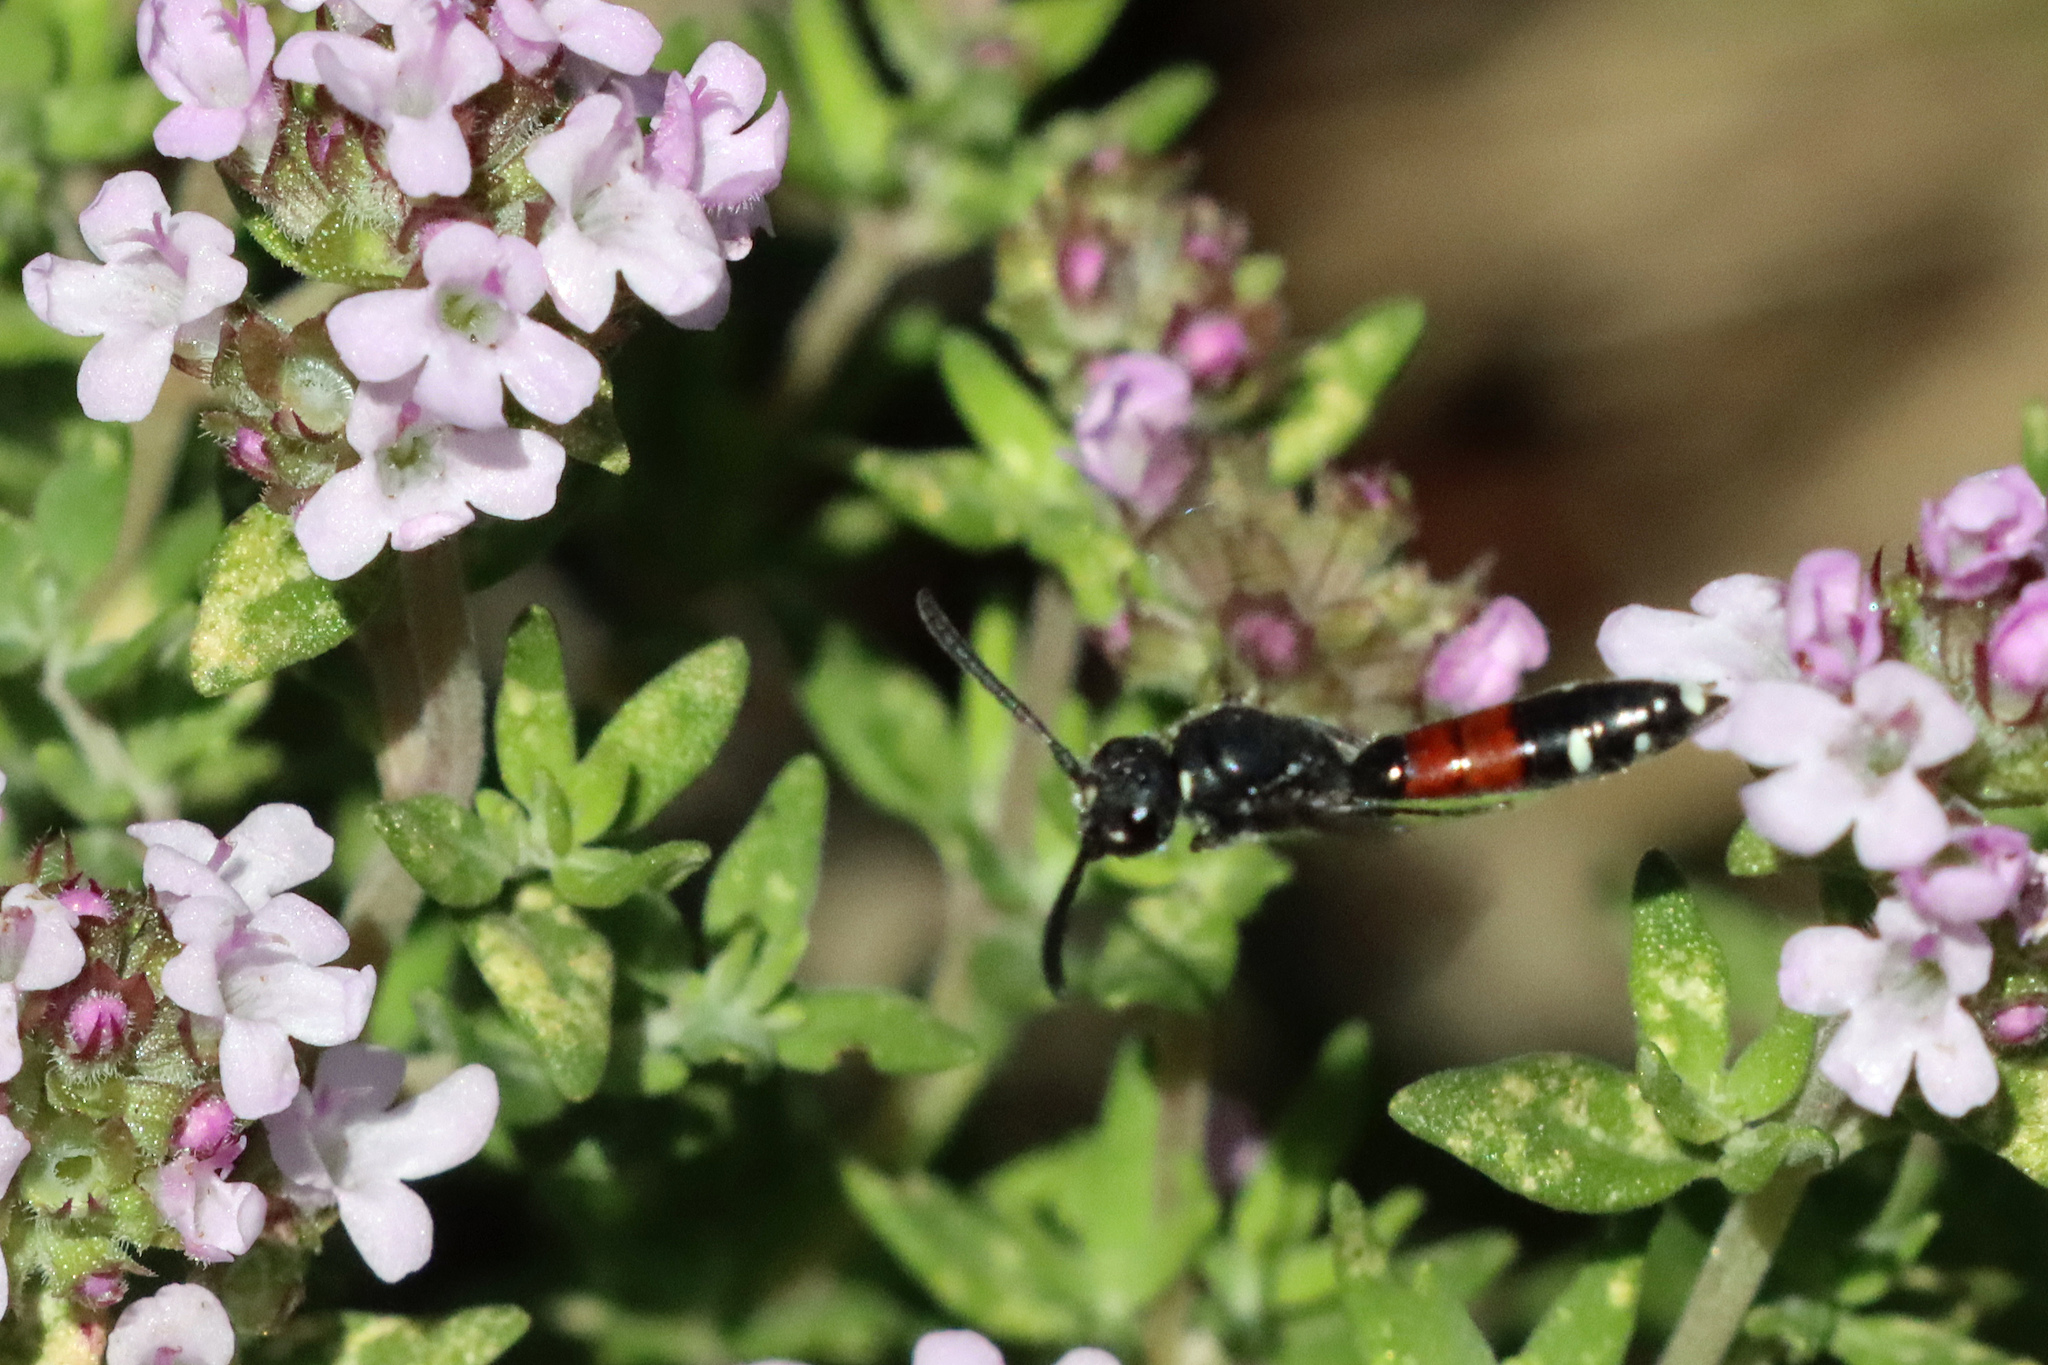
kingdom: Animalia
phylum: Arthropoda
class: Insecta
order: Hymenoptera
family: Sapygidae
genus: Sapyga
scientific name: Sapyga quinquepunctata
